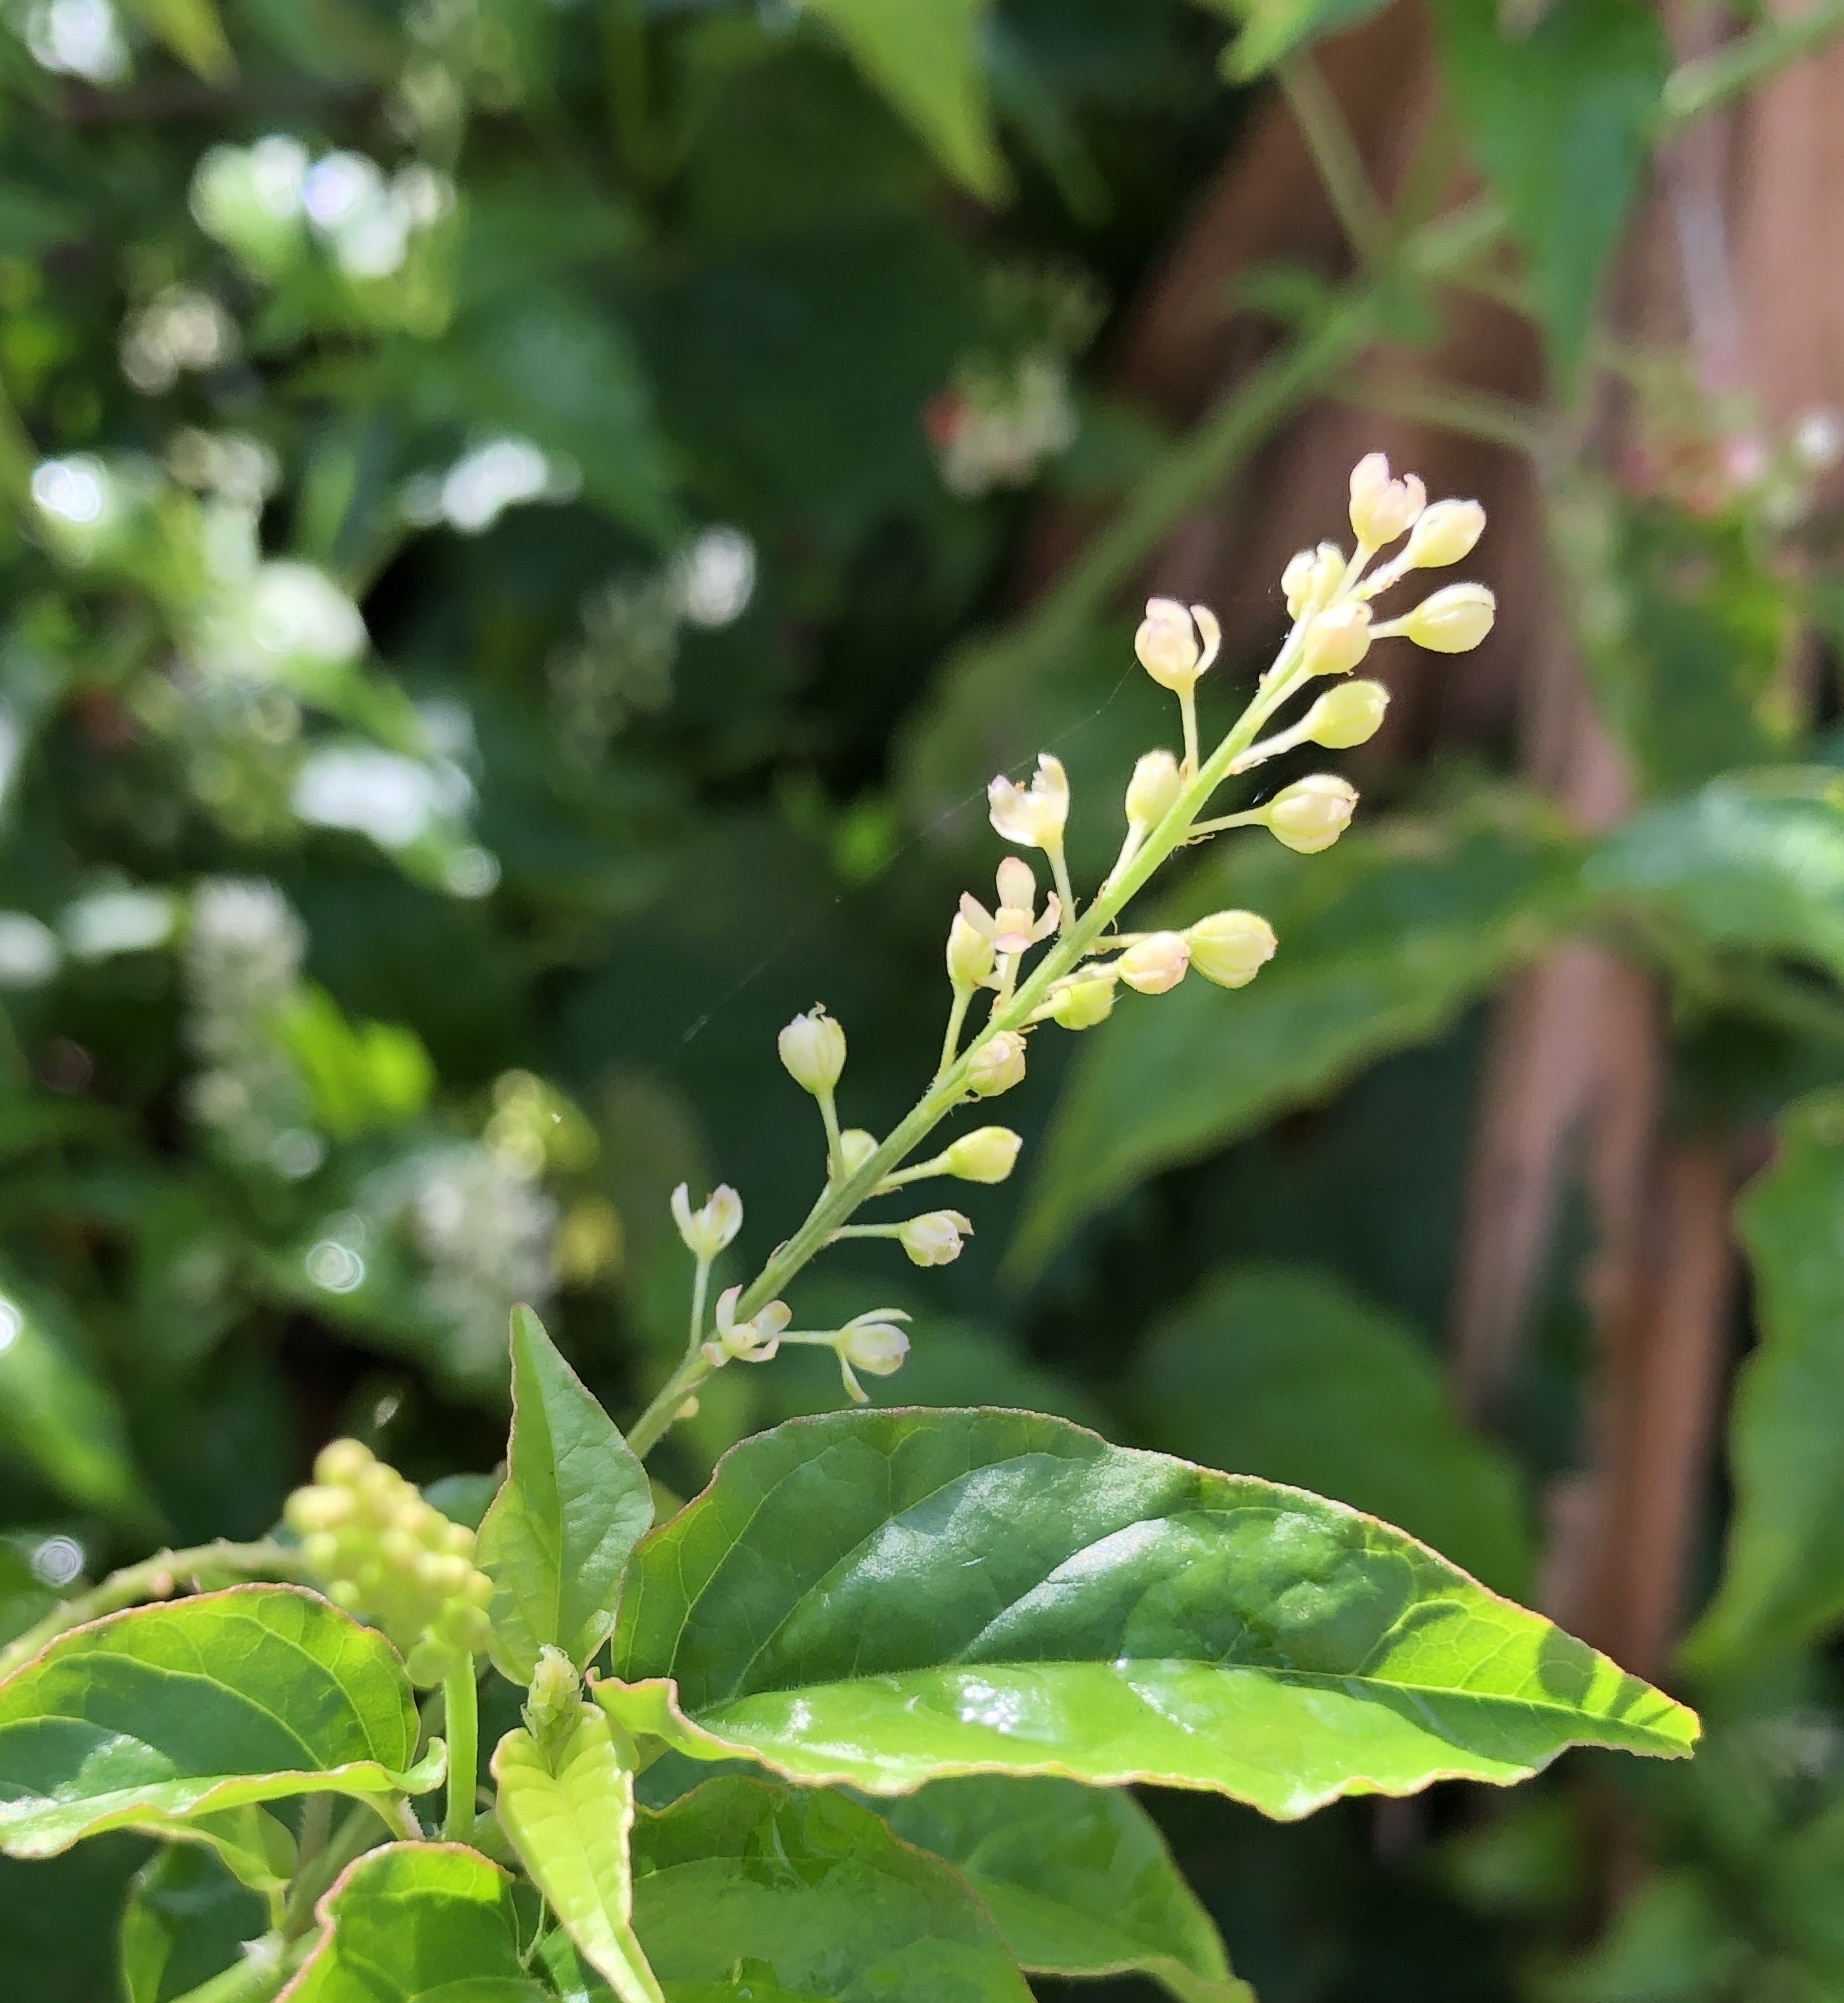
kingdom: Plantae
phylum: Tracheophyta
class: Magnoliopsida
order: Caryophyllales
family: Phytolaccaceae
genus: Rivina
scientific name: Rivina humilis
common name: Rougeplant
